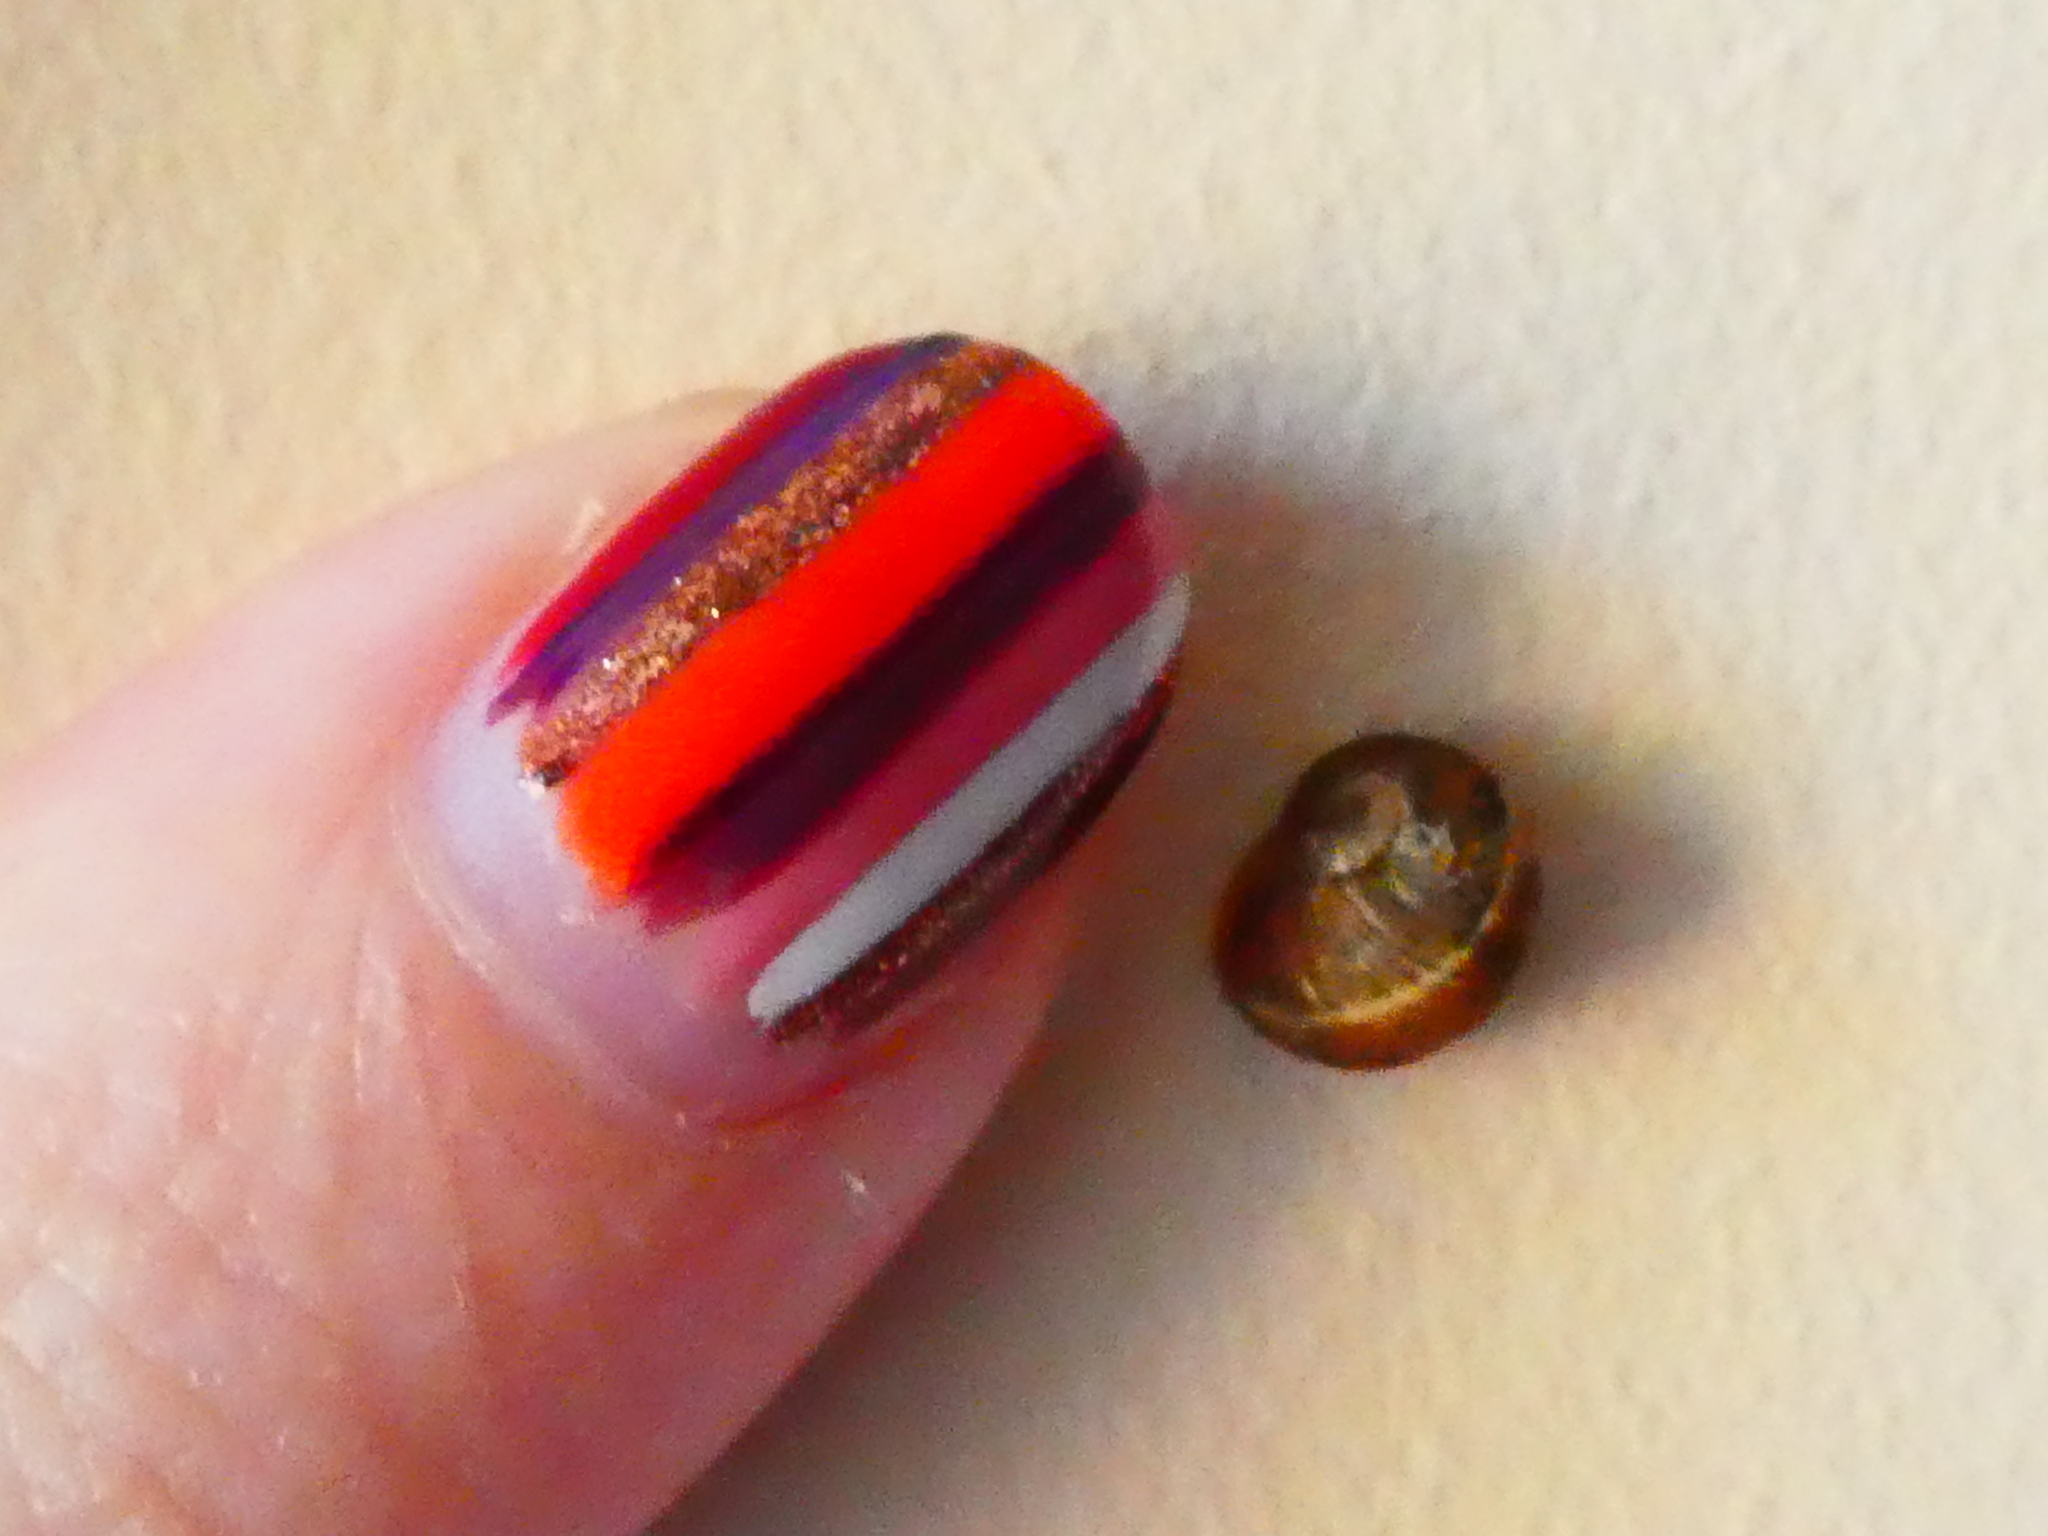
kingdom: Animalia
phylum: Mollusca
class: Gastropoda
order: Stylommatophora
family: Helicidae
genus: Cornu
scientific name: Cornu aspersum
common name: Brown garden snail
